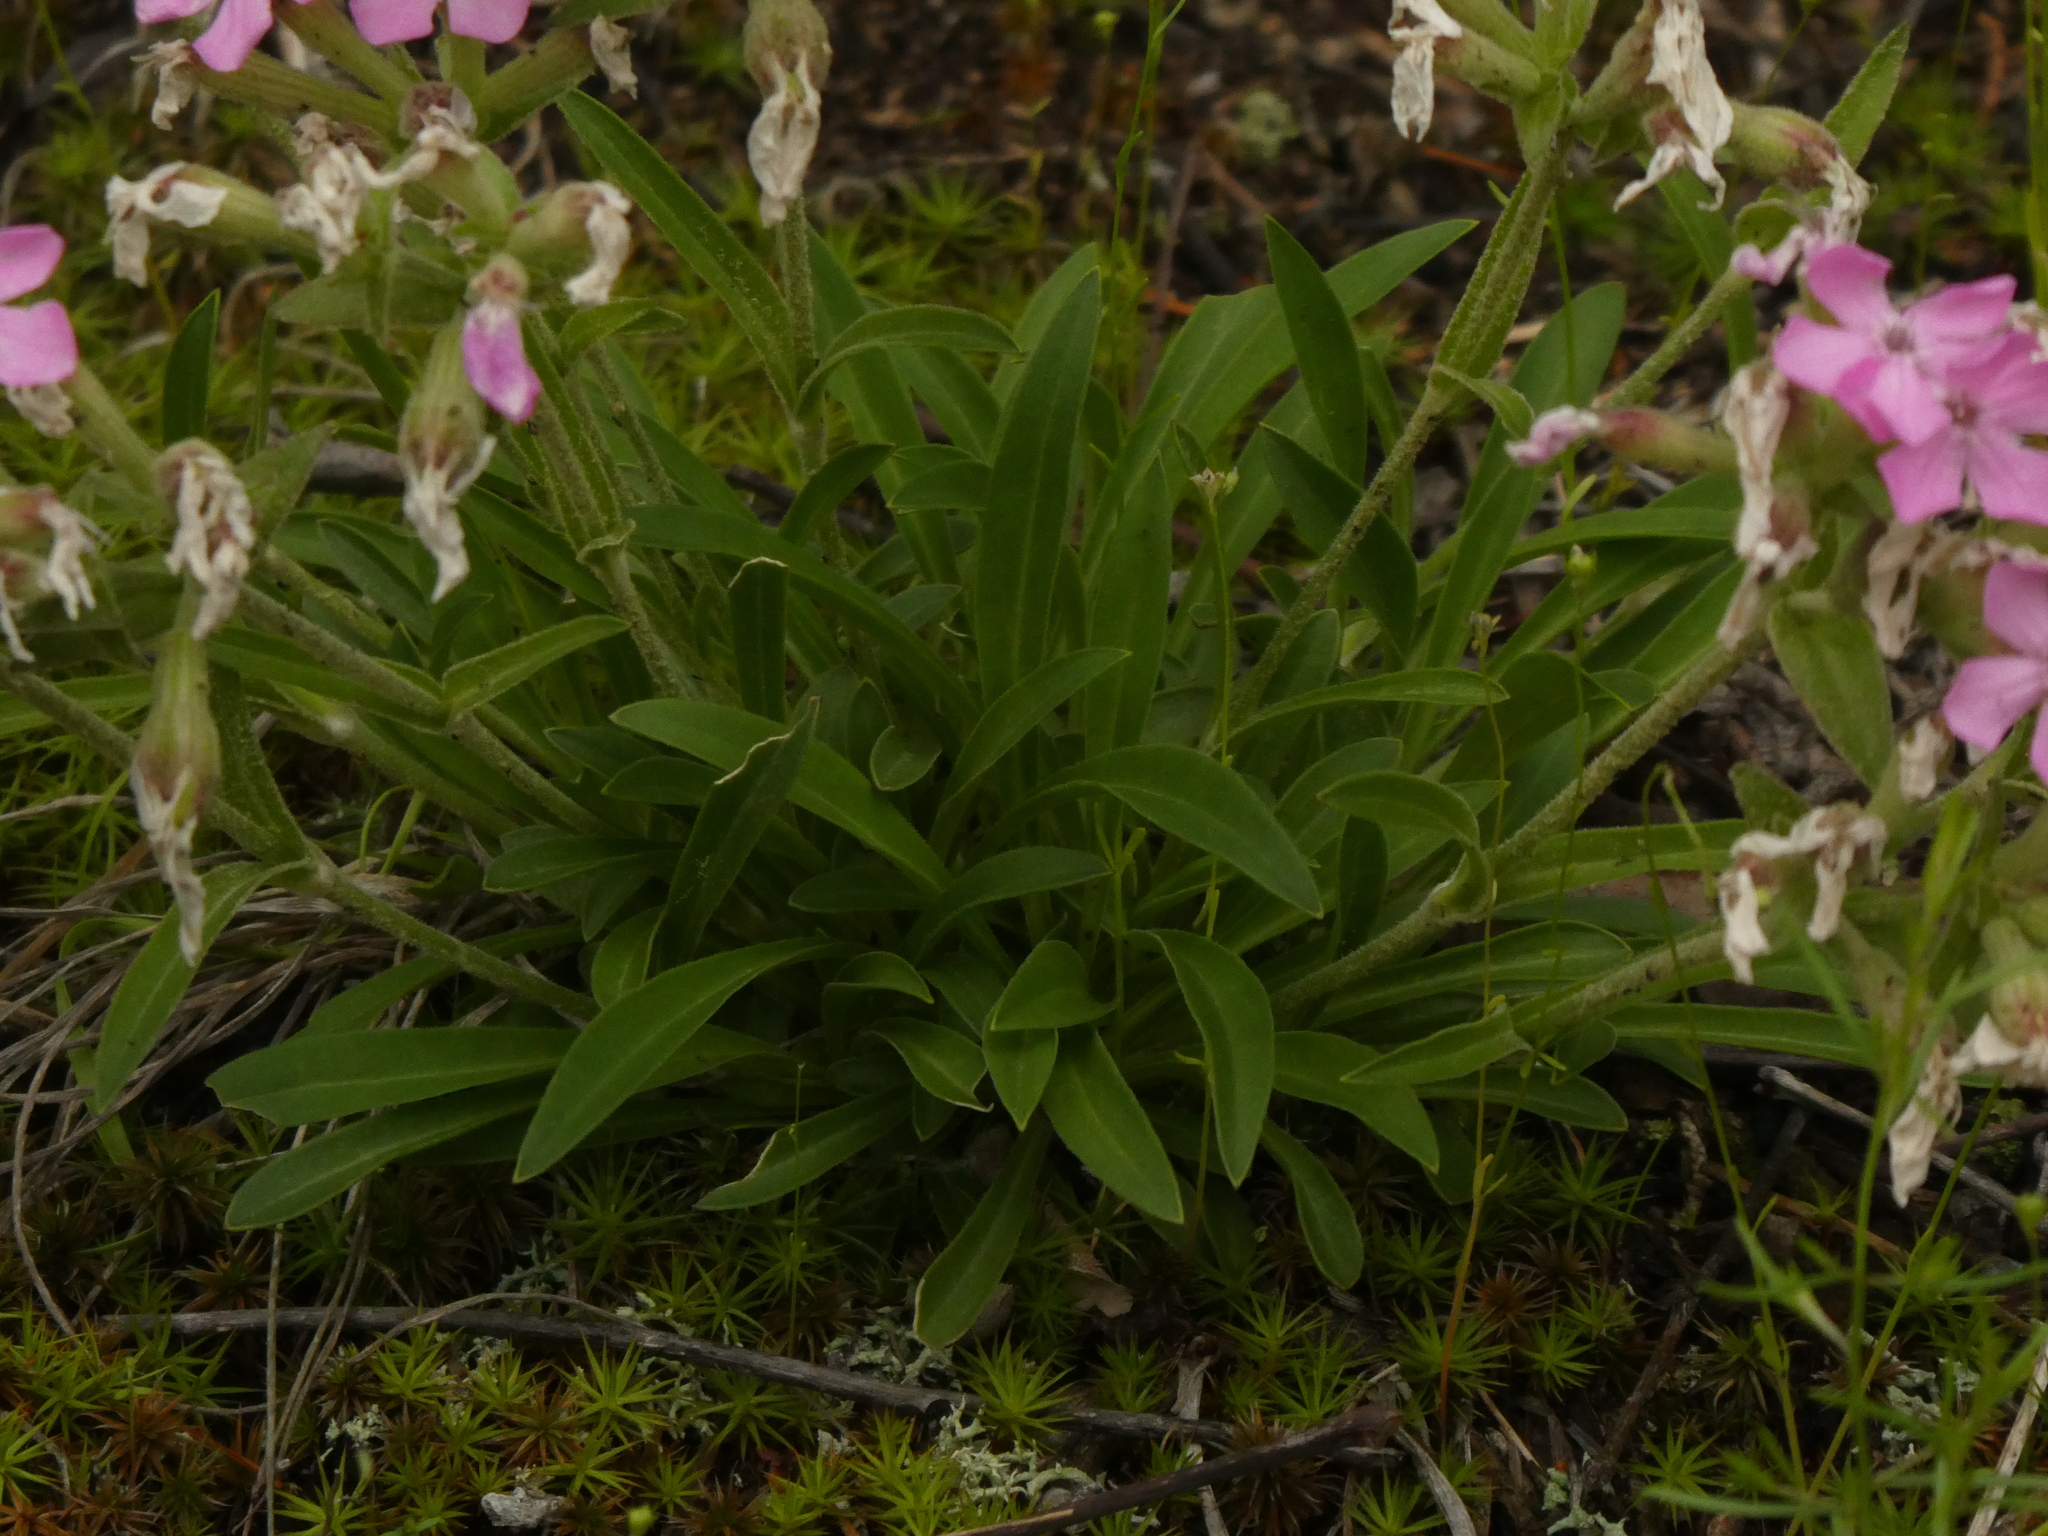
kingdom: Plantae
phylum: Tracheophyta
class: Magnoliopsida
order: Caryophyllales
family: Caryophyllaceae
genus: Silene
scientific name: Silene caroliniana
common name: Sticky catchfly
